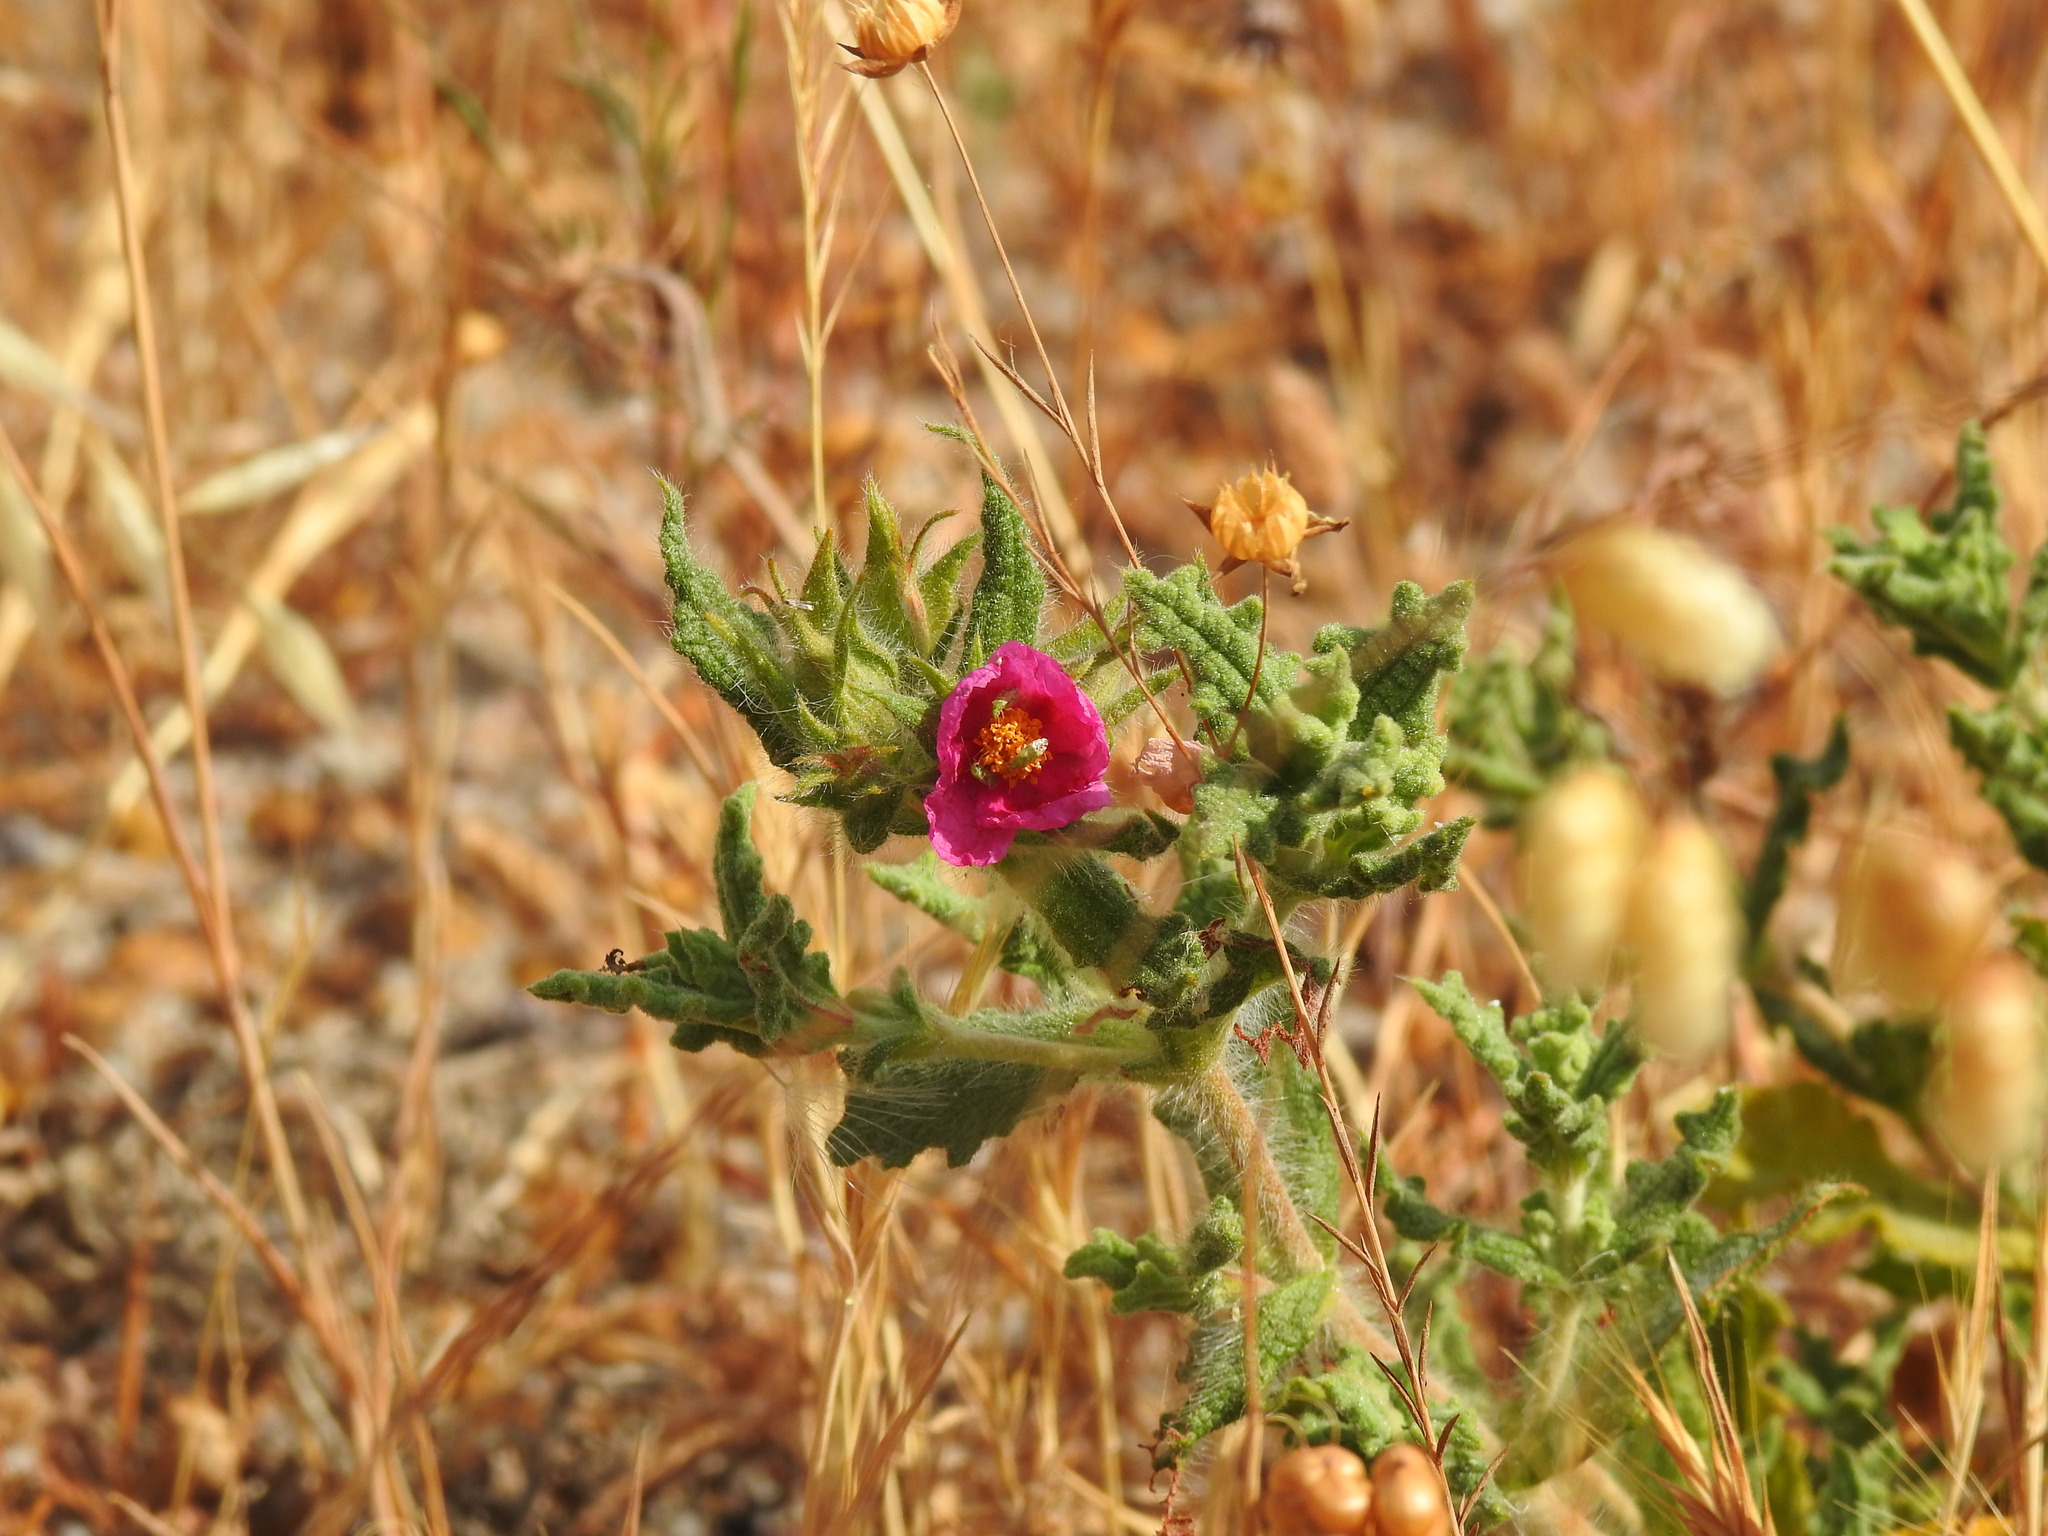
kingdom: Plantae
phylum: Tracheophyta
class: Magnoliopsida
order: Malvales
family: Cistaceae
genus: Cistus
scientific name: Cistus crispus
